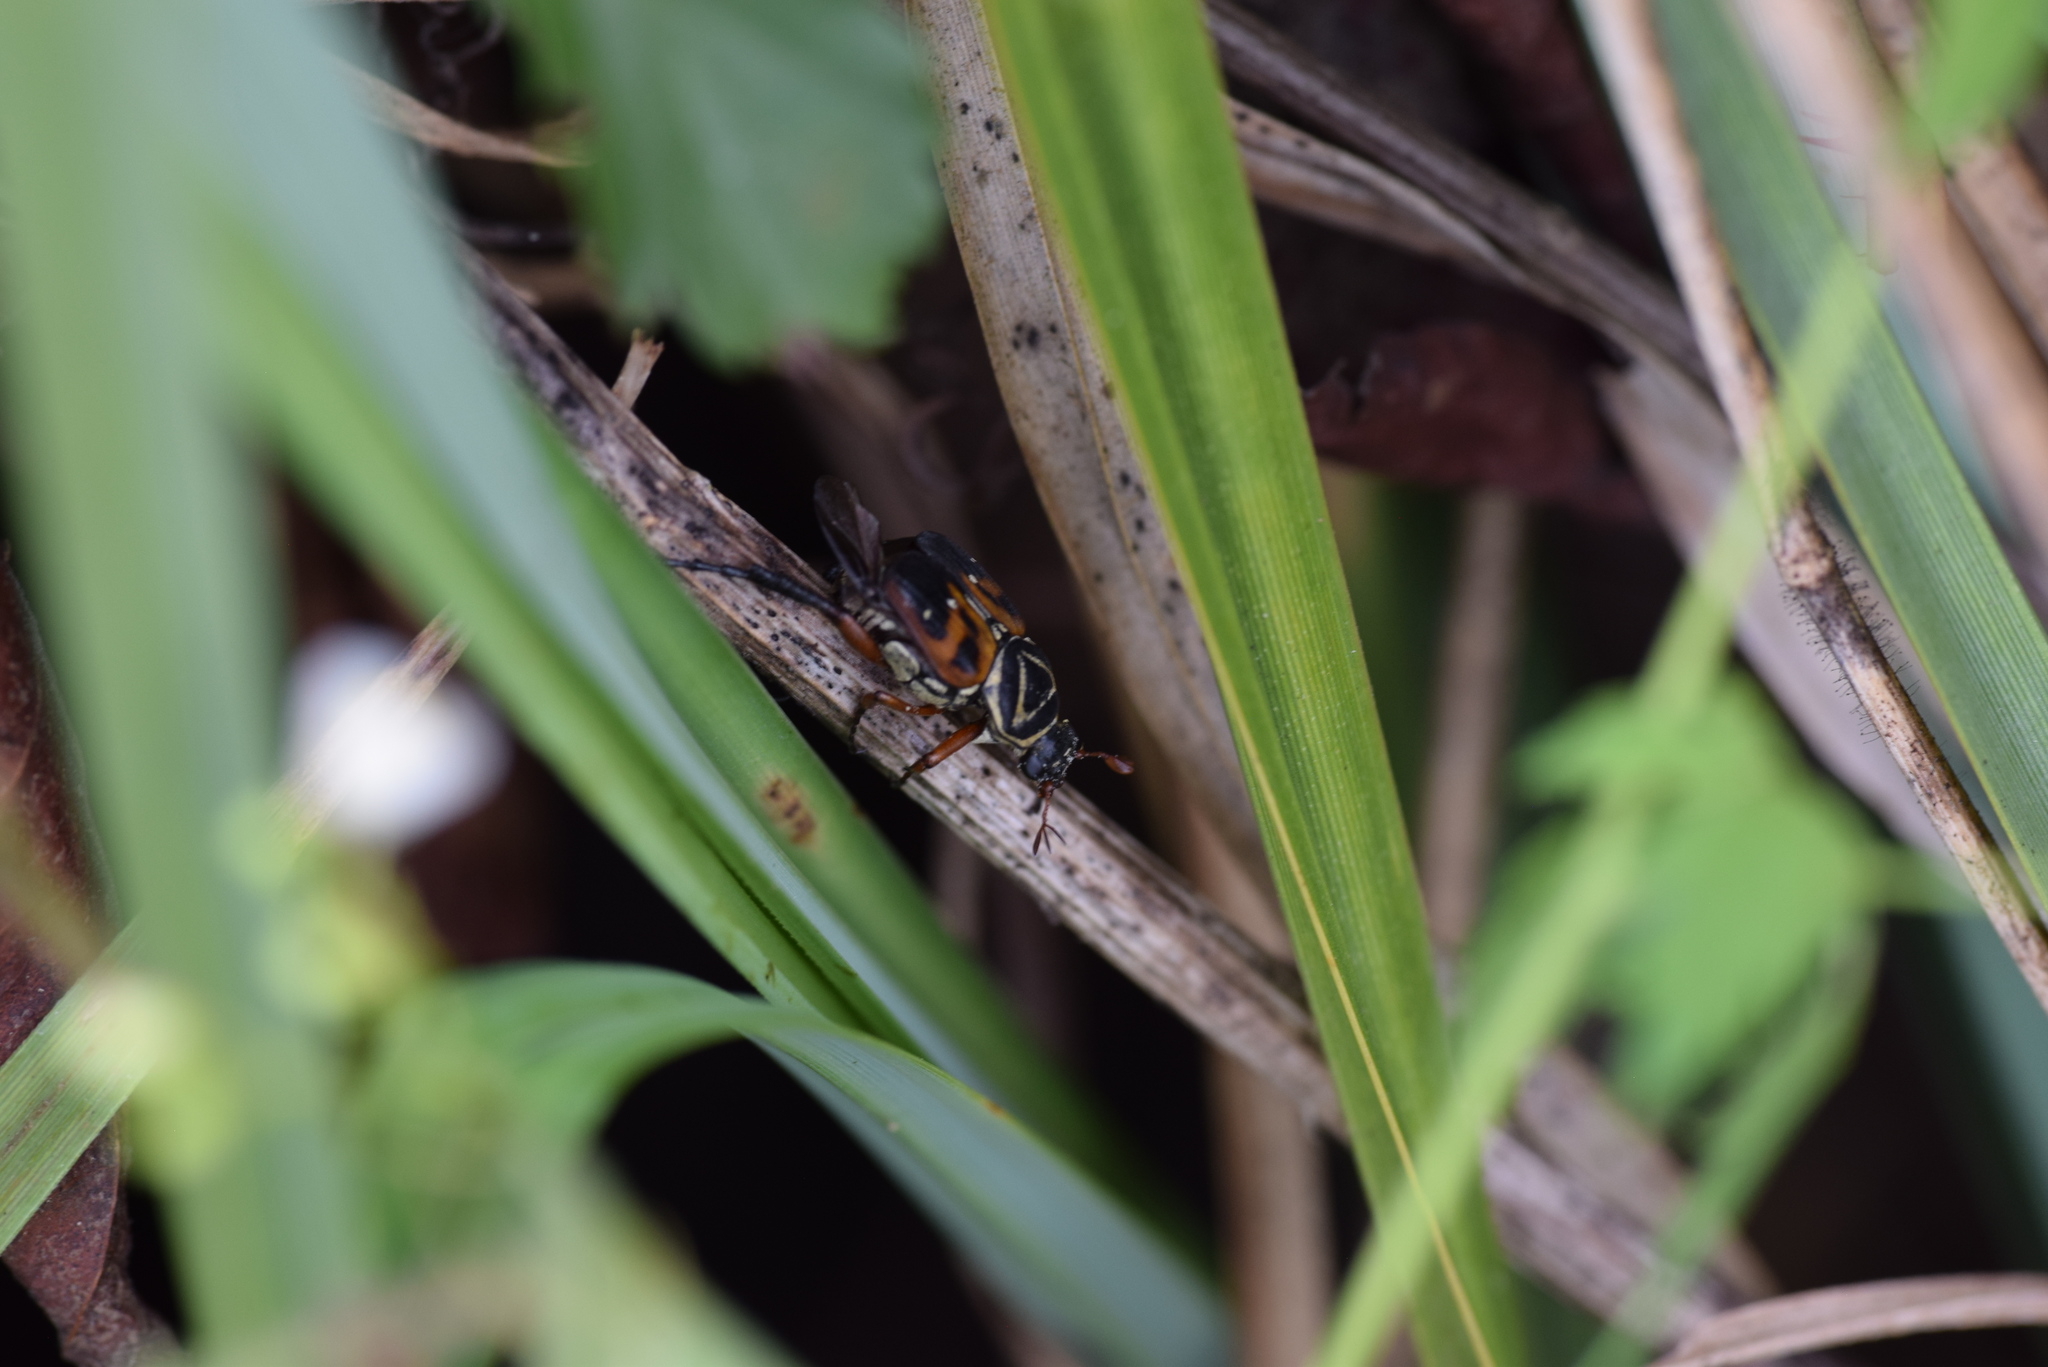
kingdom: Animalia
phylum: Arthropoda
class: Insecta
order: Coleoptera
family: Scarabaeidae
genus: Trigonopeltastes
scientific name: Trigonopeltastes delta
